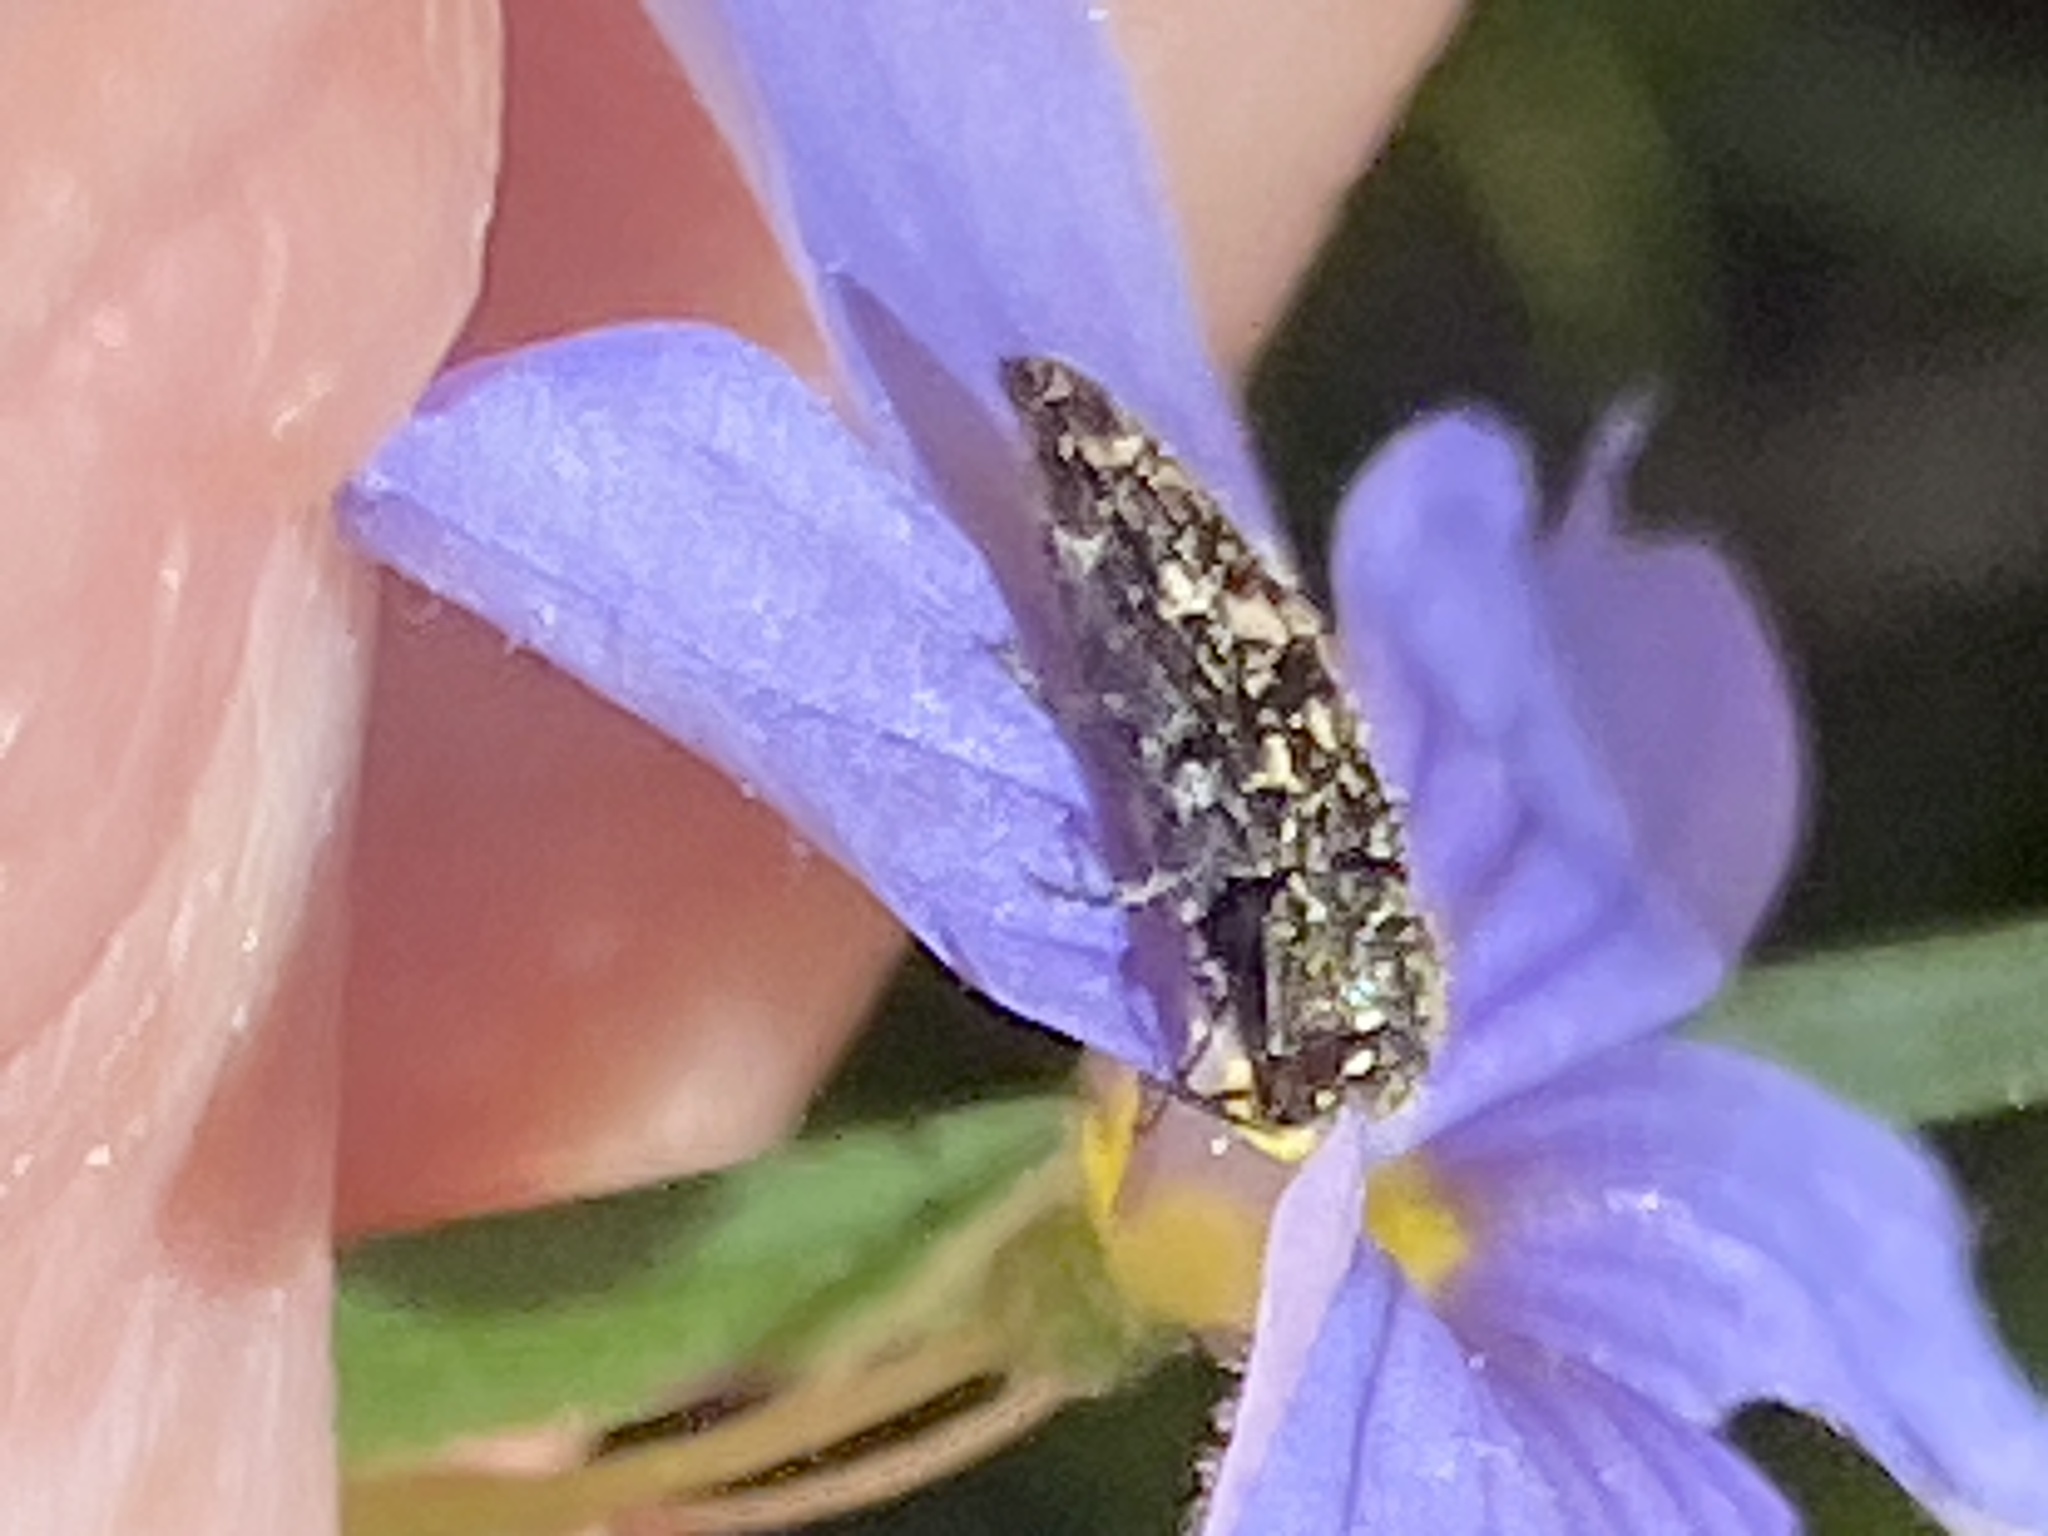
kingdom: Animalia
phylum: Arthropoda
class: Insecta
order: Coleoptera
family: Buprestidae
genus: Acmaeodera
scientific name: Acmaeodera tubulus
